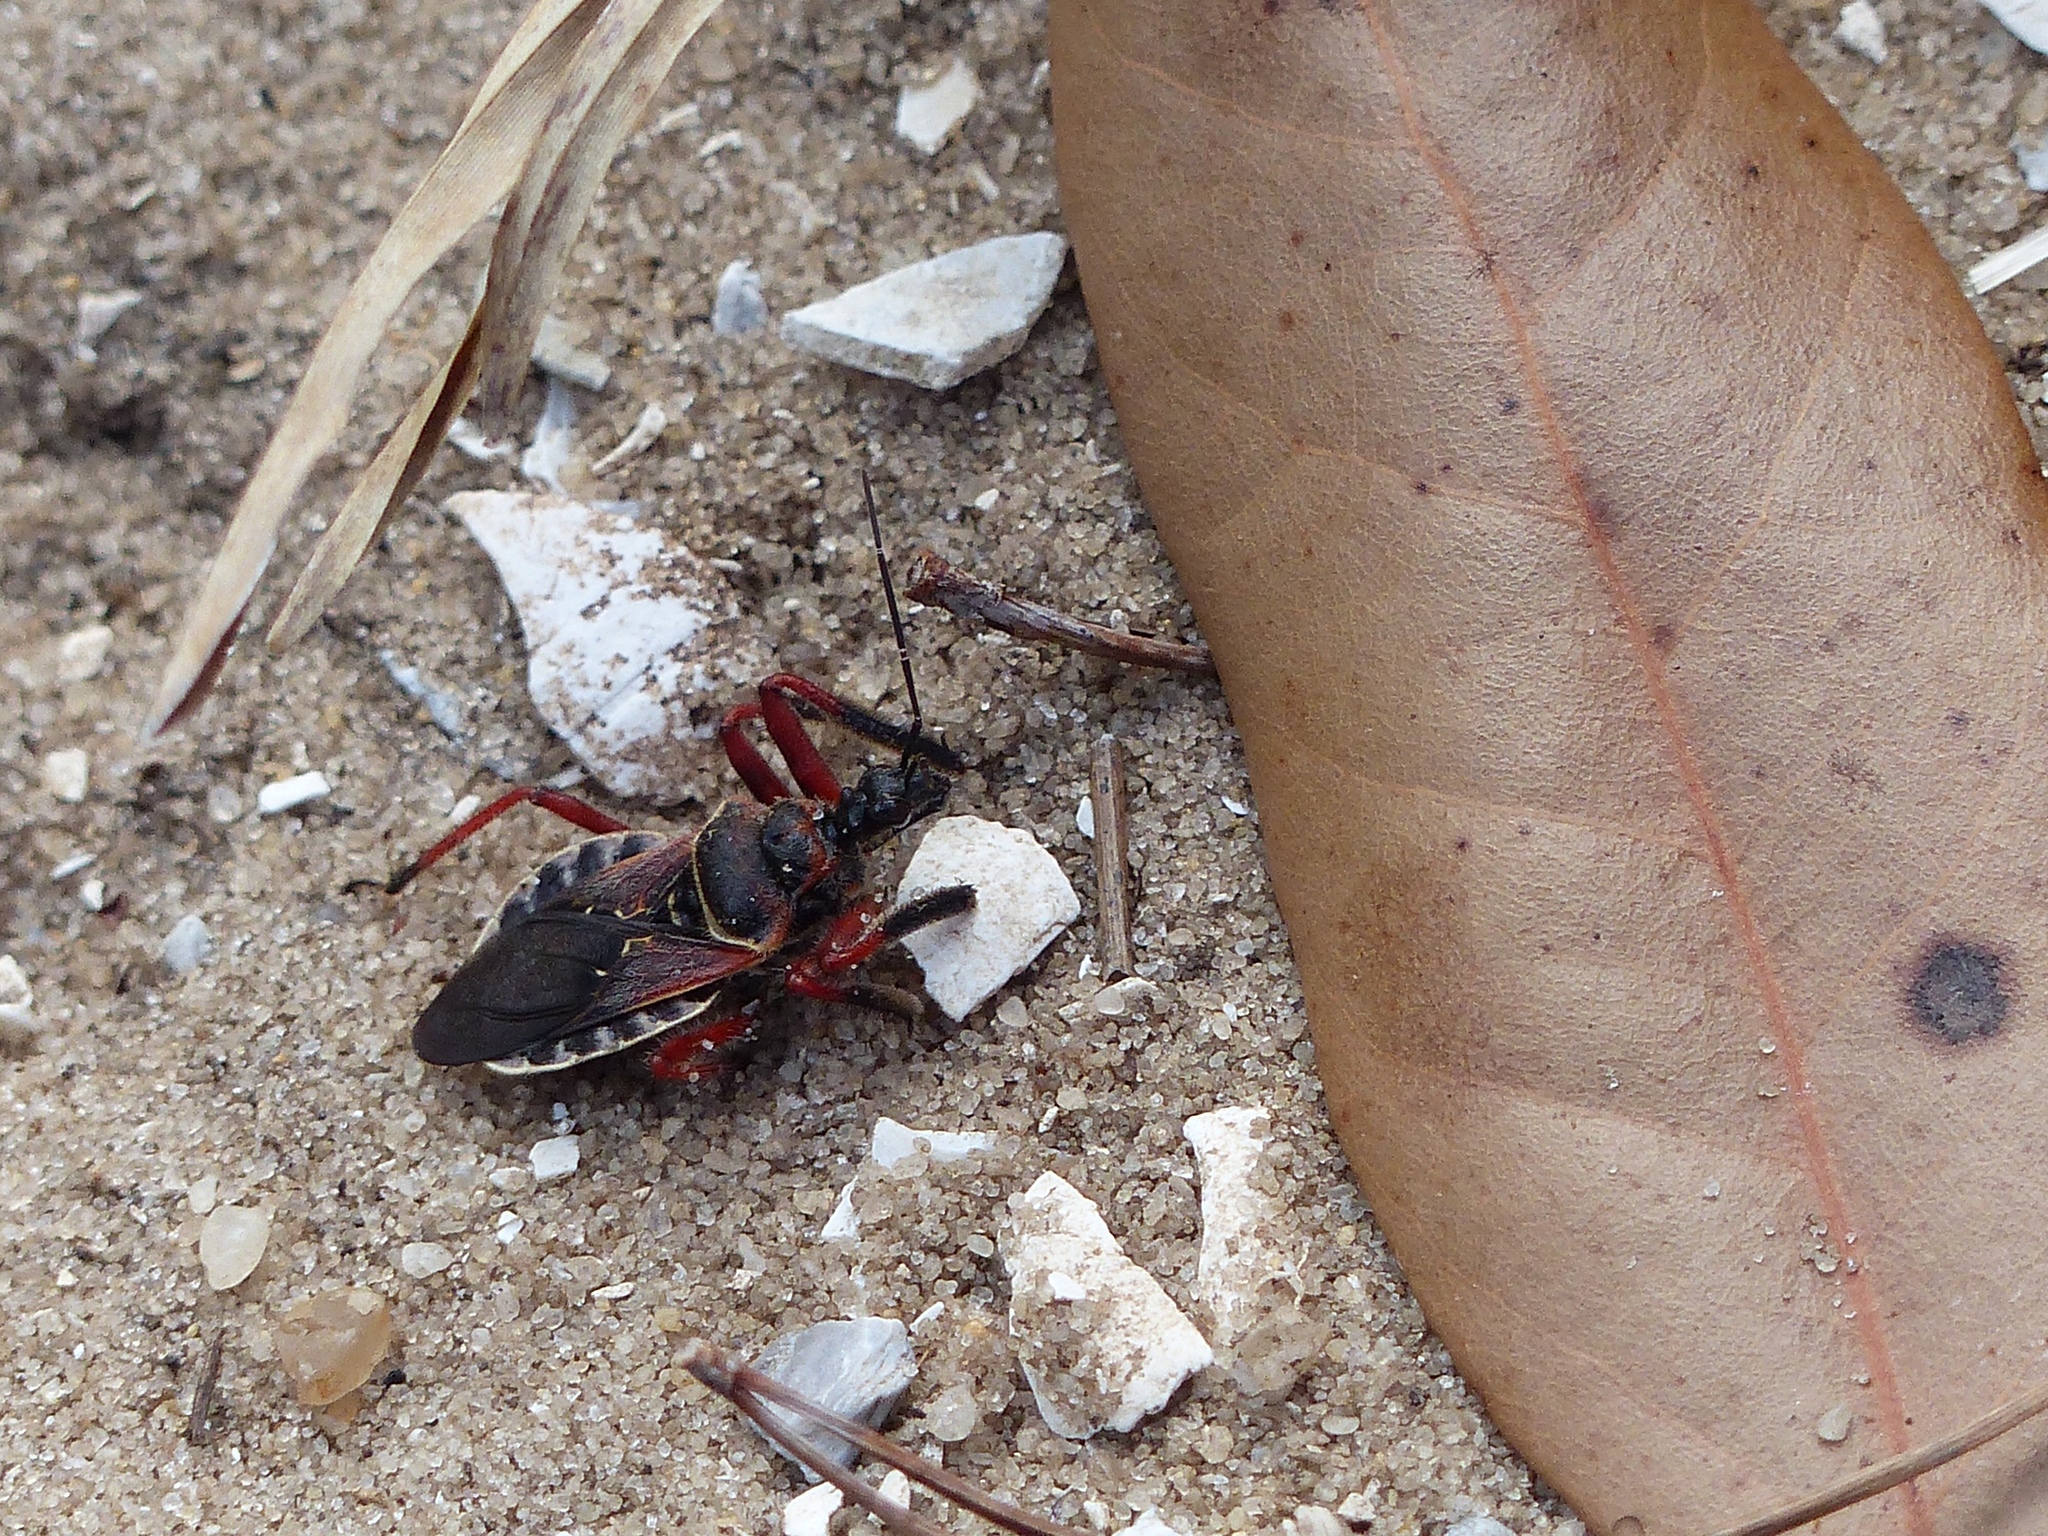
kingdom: Animalia
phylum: Arthropoda
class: Insecta
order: Hemiptera
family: Reduviidae
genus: Apiomerus
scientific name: Apiomerus floridensis
